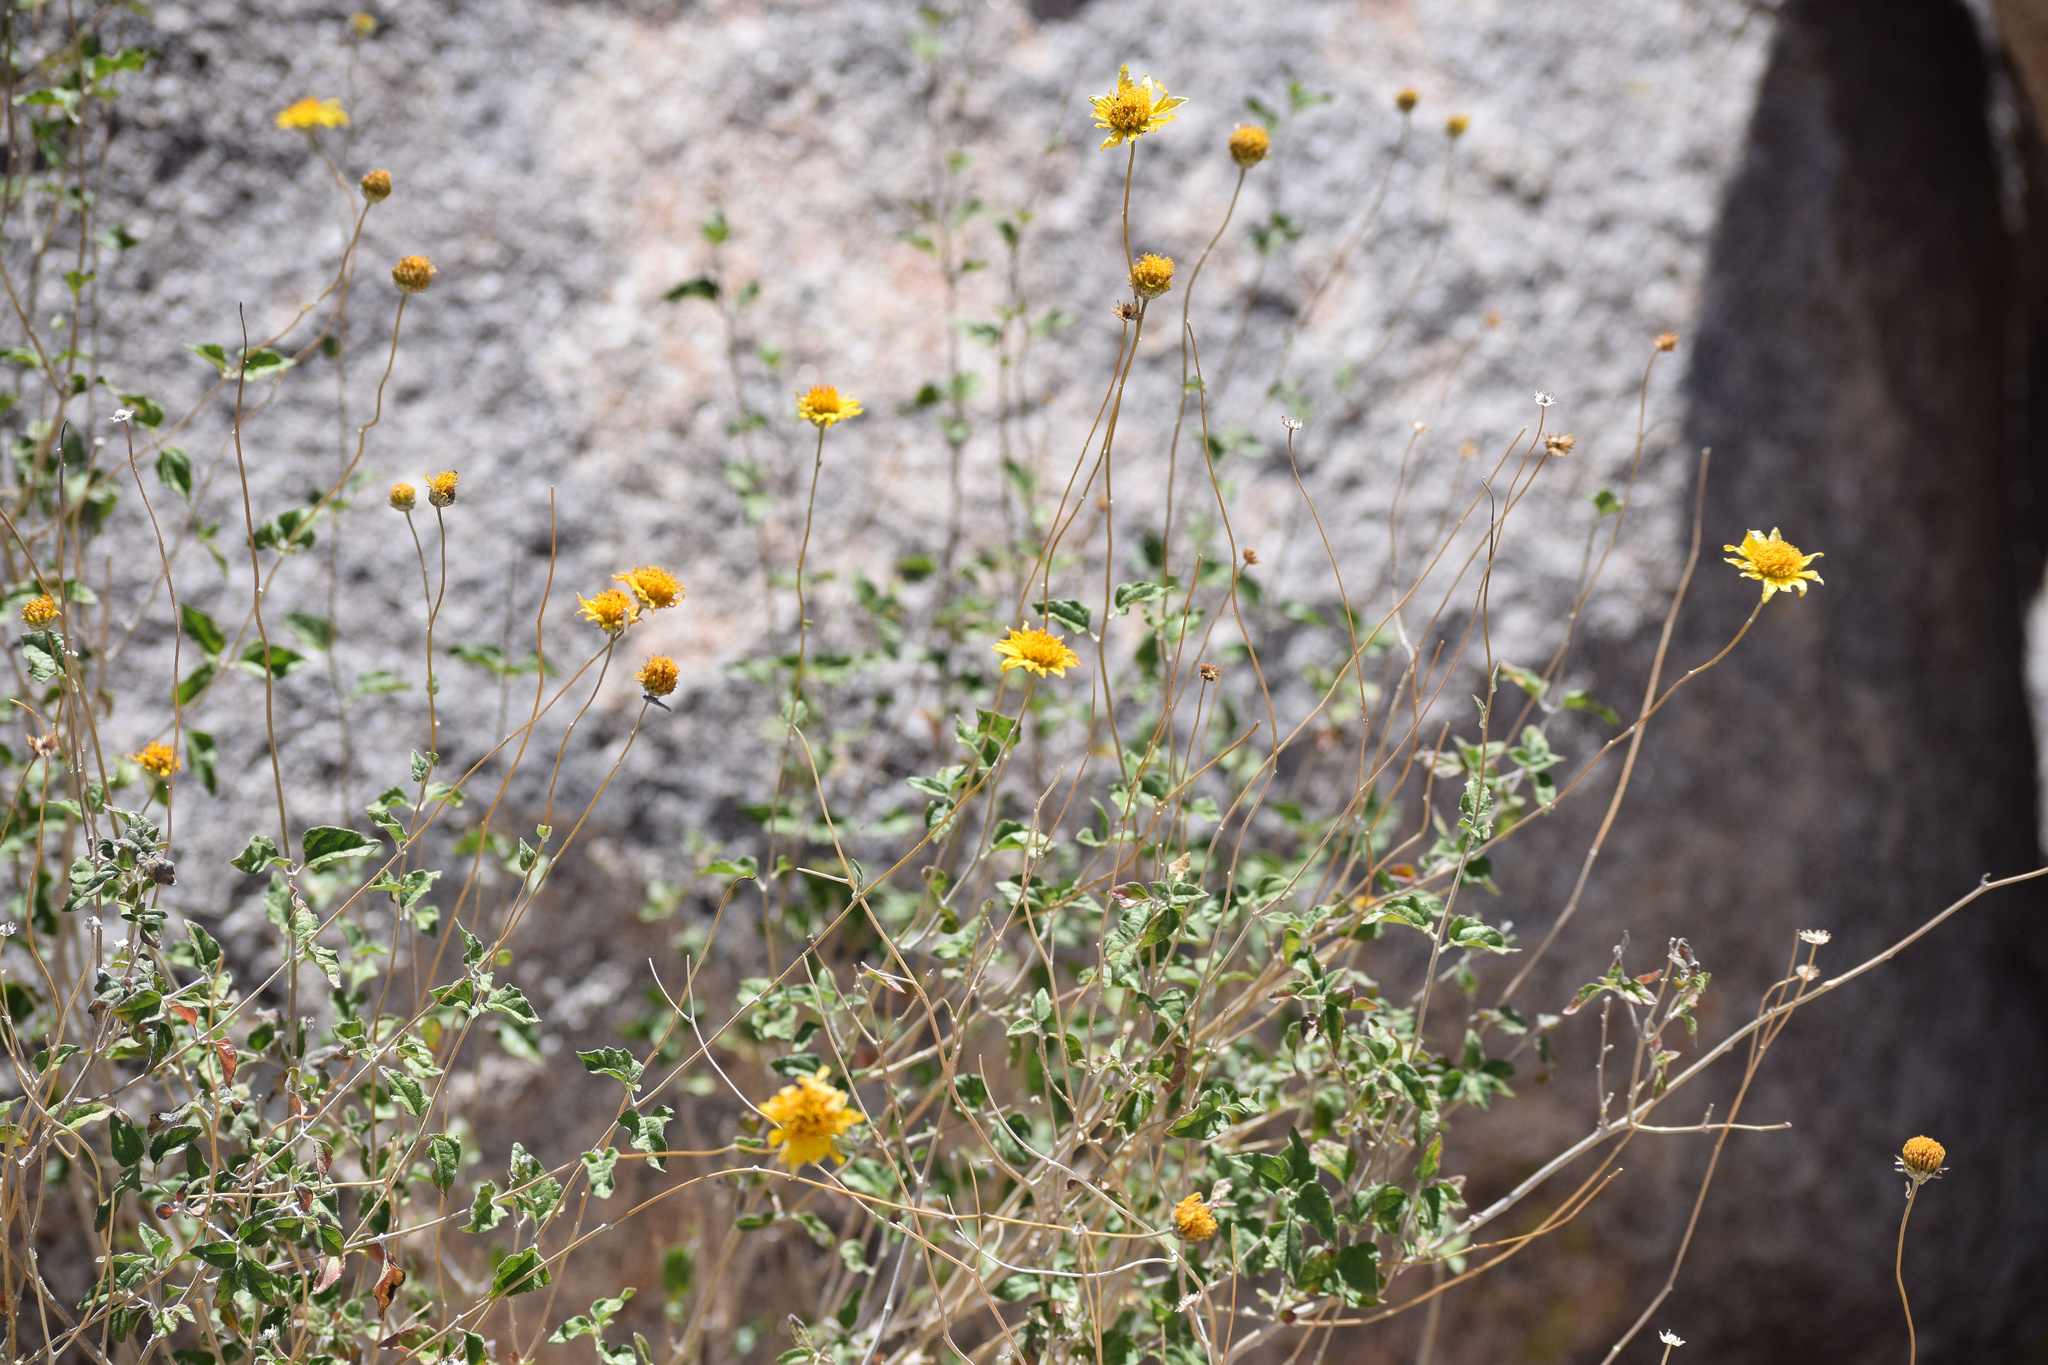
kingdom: Plantae
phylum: Tracheophyta
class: Magnoliopsida
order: Asterales
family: Asteraceae
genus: Bahiopsis
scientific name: Bahiopsis parishii
